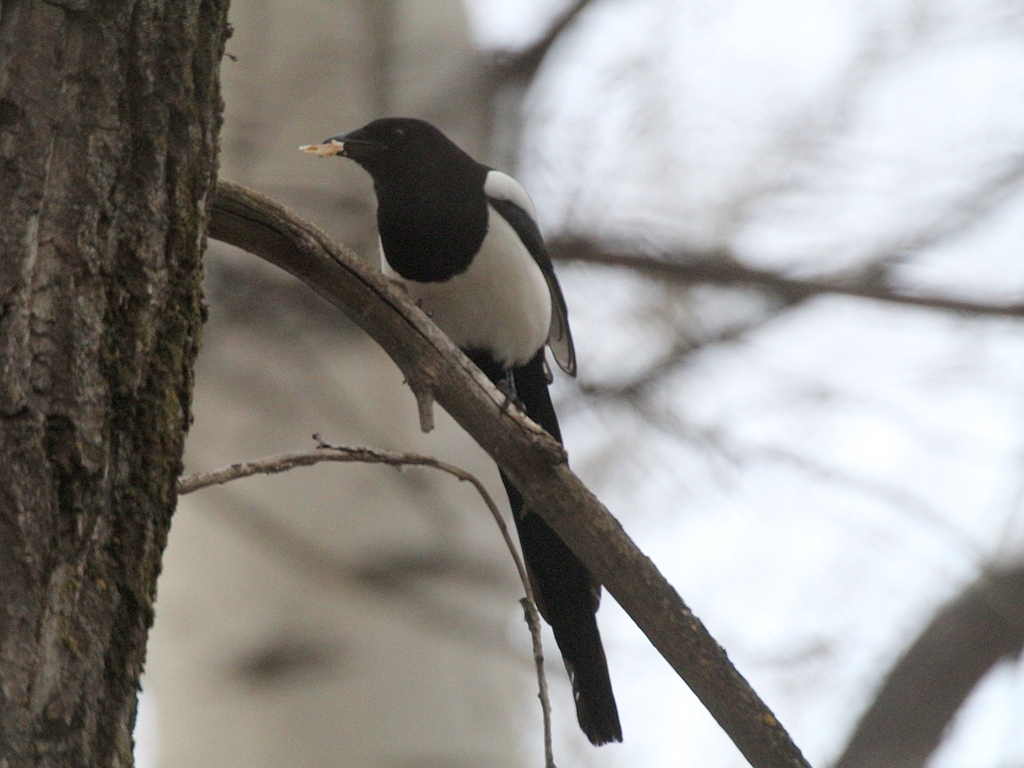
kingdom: Animalia
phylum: Chordata
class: Aves
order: Passeriformes
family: Corvidae
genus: Pica
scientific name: Pica pica
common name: Eurasian magpie
